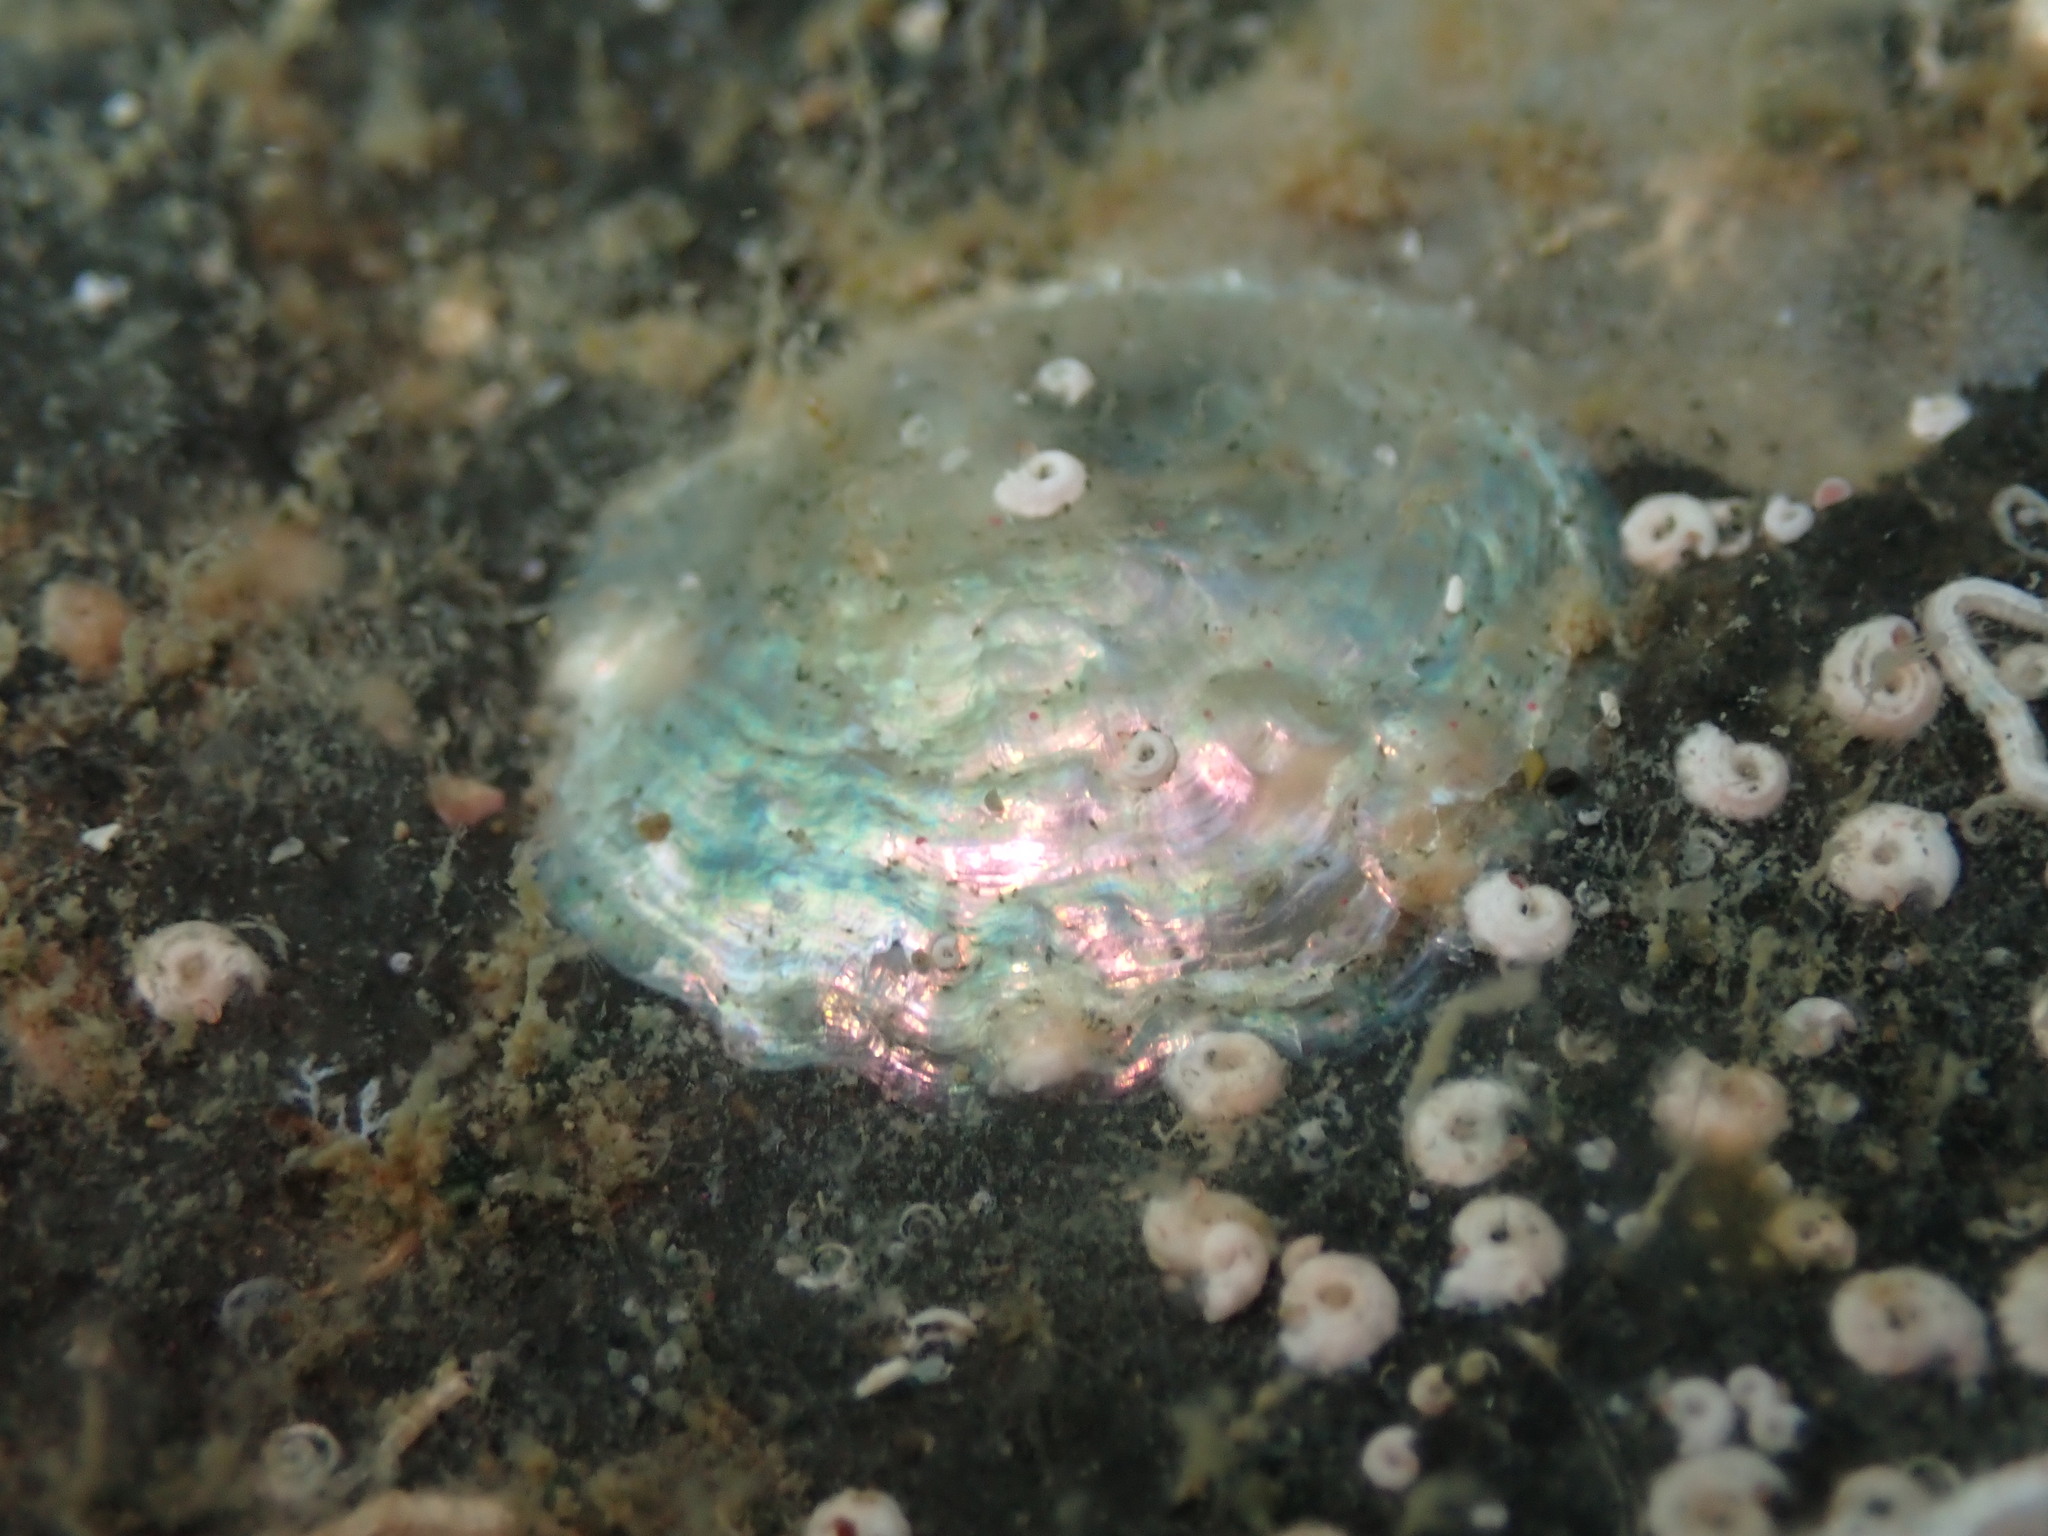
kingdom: Animalia
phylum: Mollusca
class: Bivalvia
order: Pectinida
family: Anomiidae
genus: Anomia
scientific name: Anomia trigonopsis
